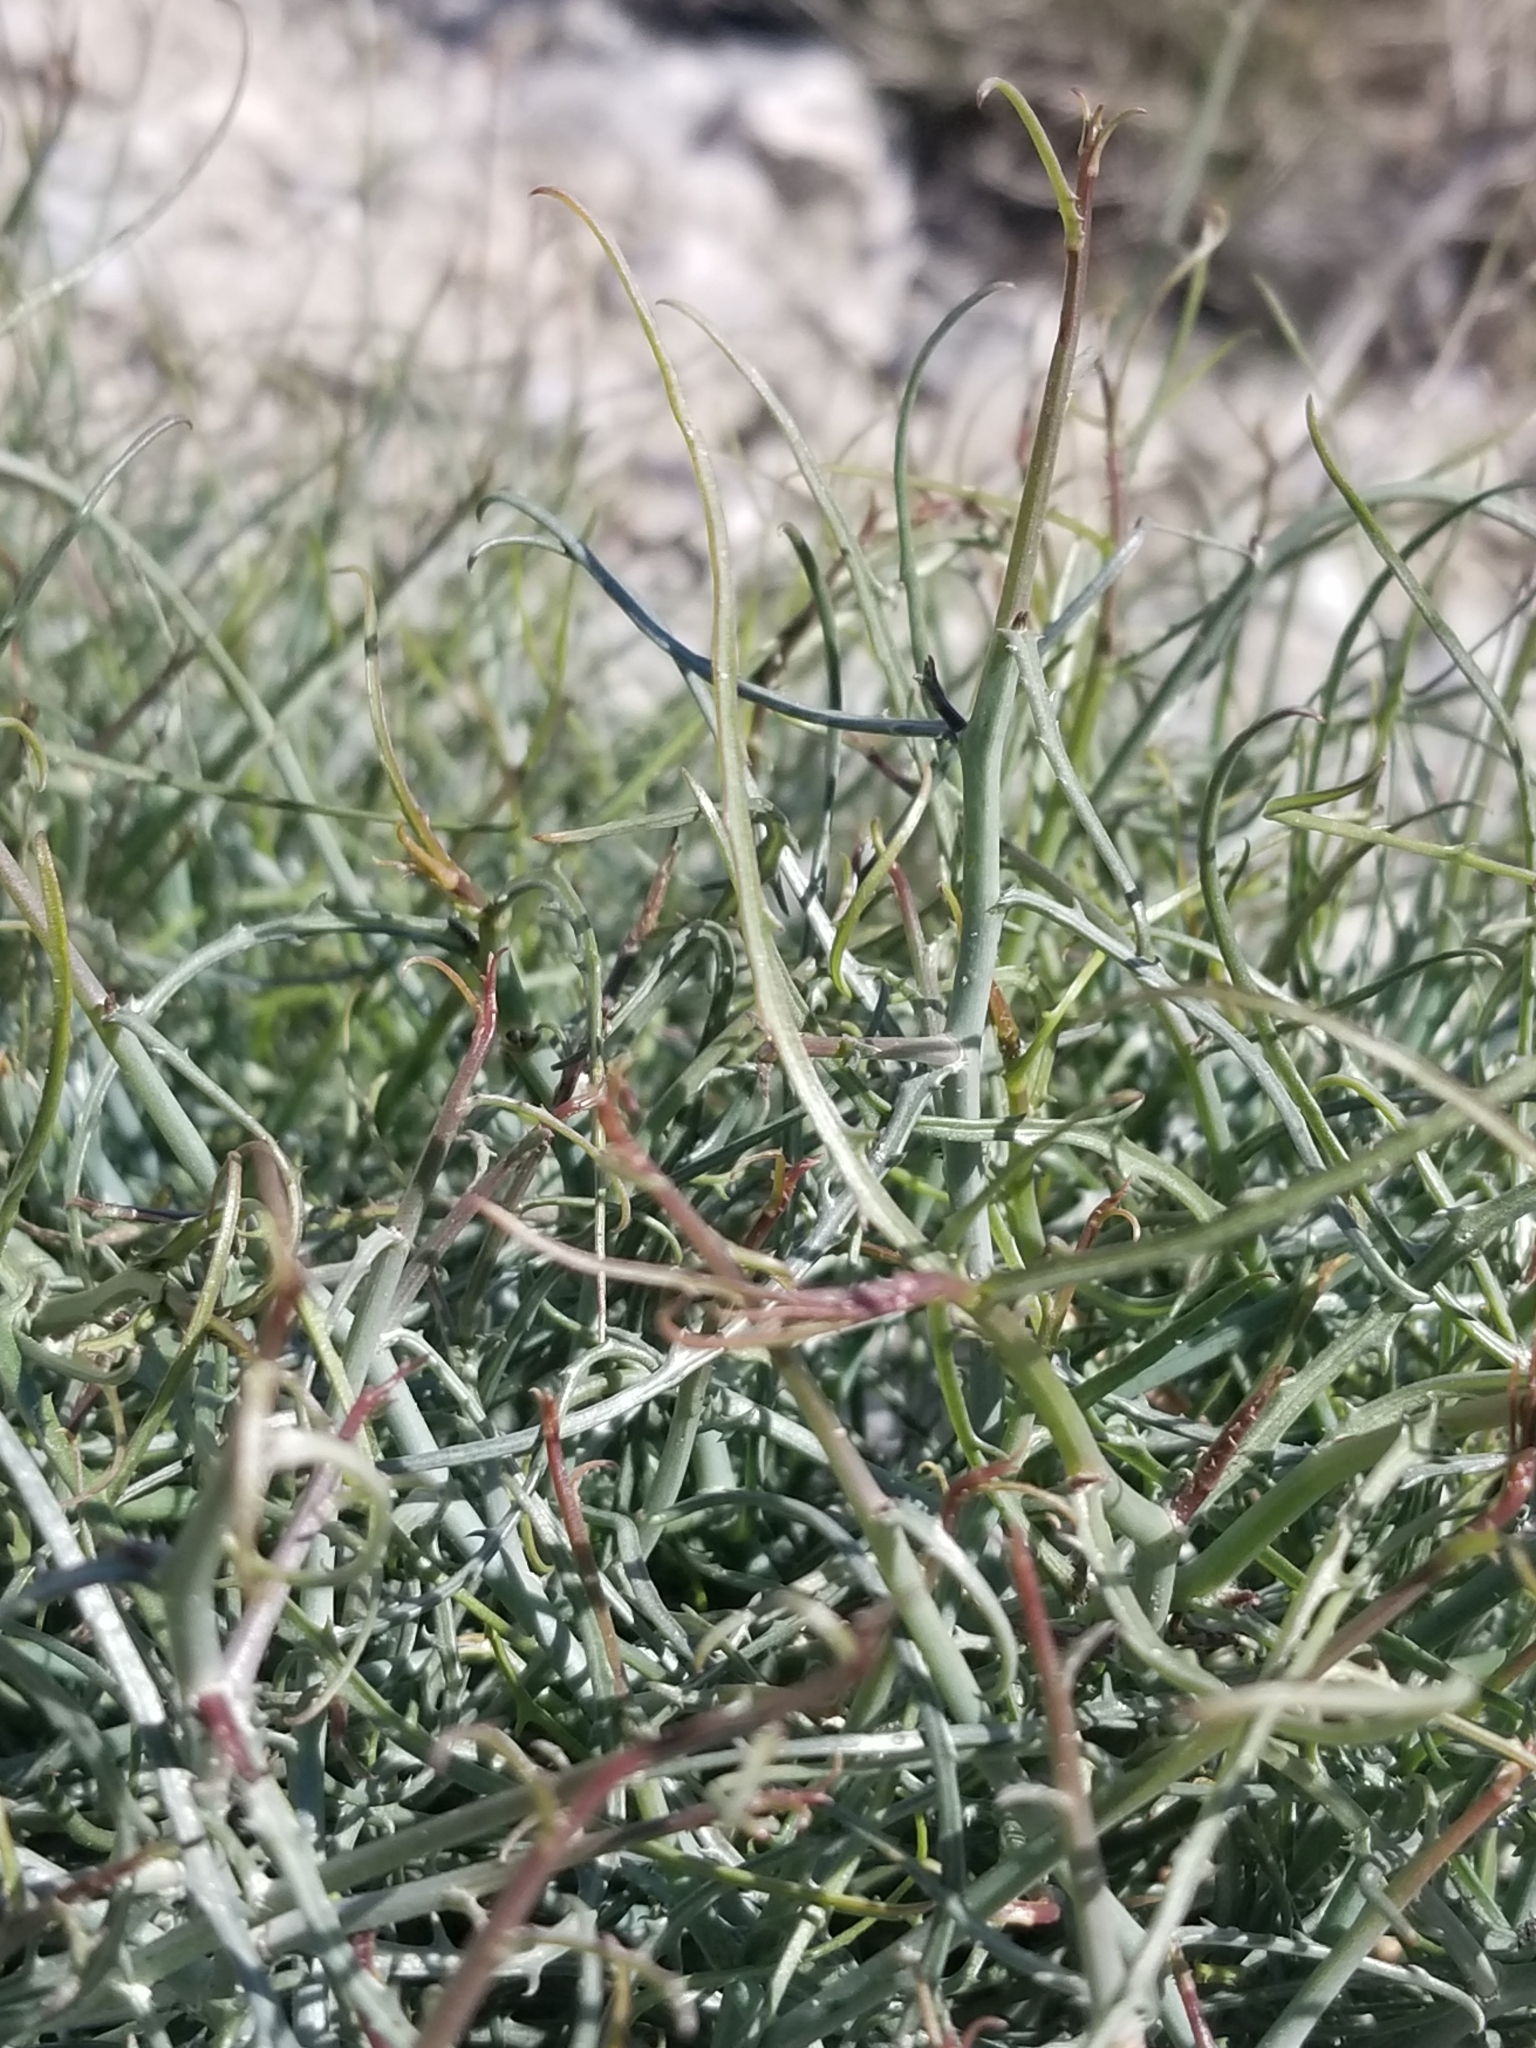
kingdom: Plantae
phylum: Tracheophyta
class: Magnoliopsida
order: Asterales
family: Asteraceae
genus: Stephanomeria
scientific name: Stephanomeria pauciflora
